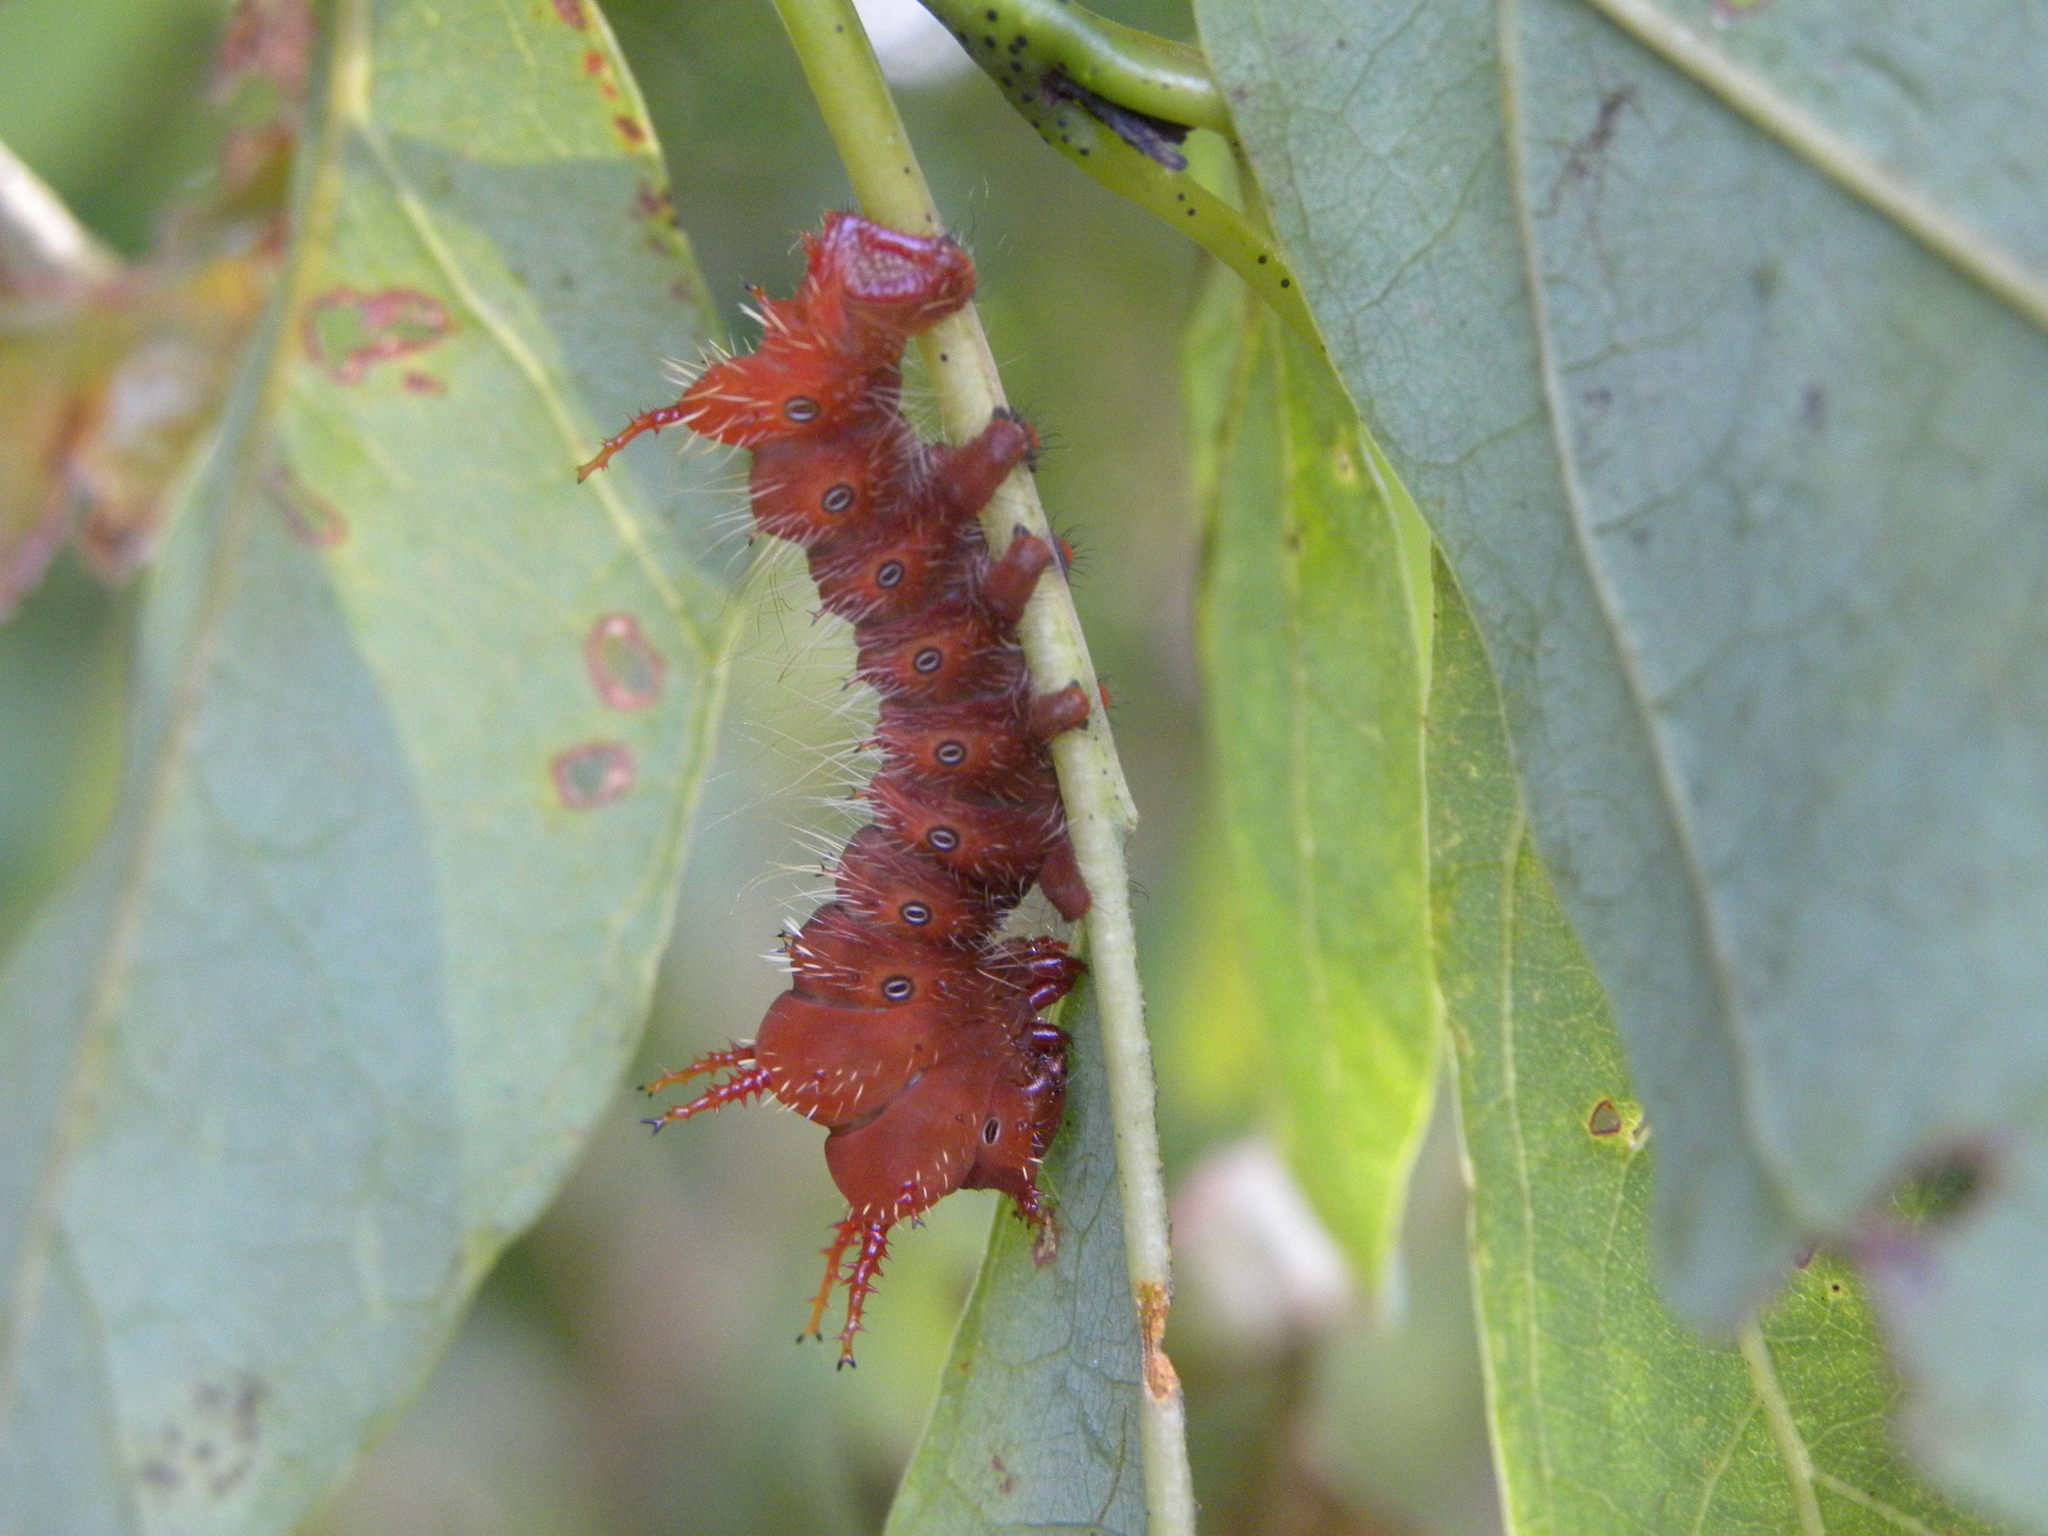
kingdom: Animalia
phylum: Arthropoda
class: Insecta
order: Lepidoptera
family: Saturniidae
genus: Eacles
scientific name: Eacles imperialis
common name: Imperial moth
